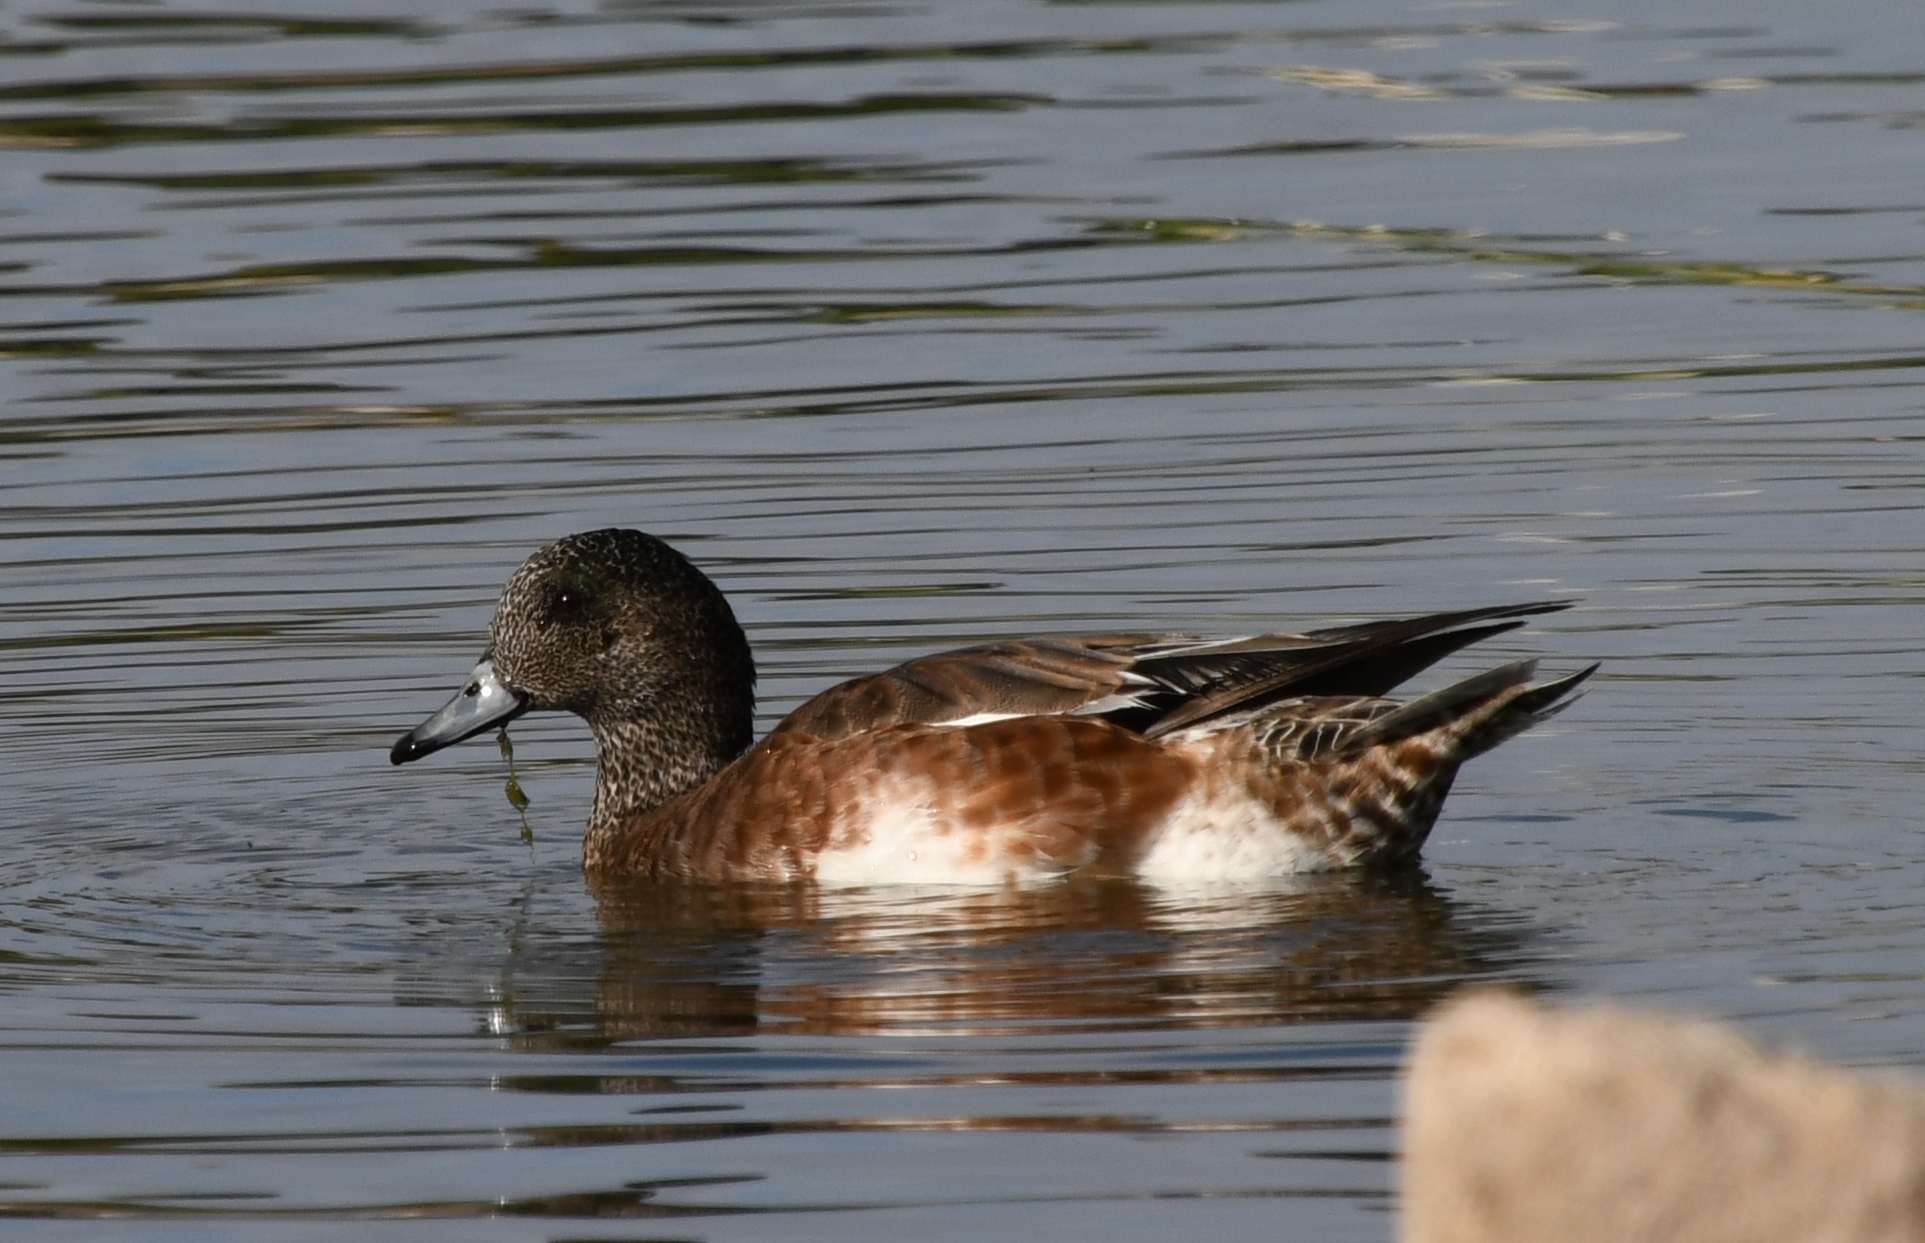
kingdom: Animalia
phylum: Chordata
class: Aves
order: Anseriformes
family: Anatidae
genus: Mareca
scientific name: Mareca americana
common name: American wigeon
